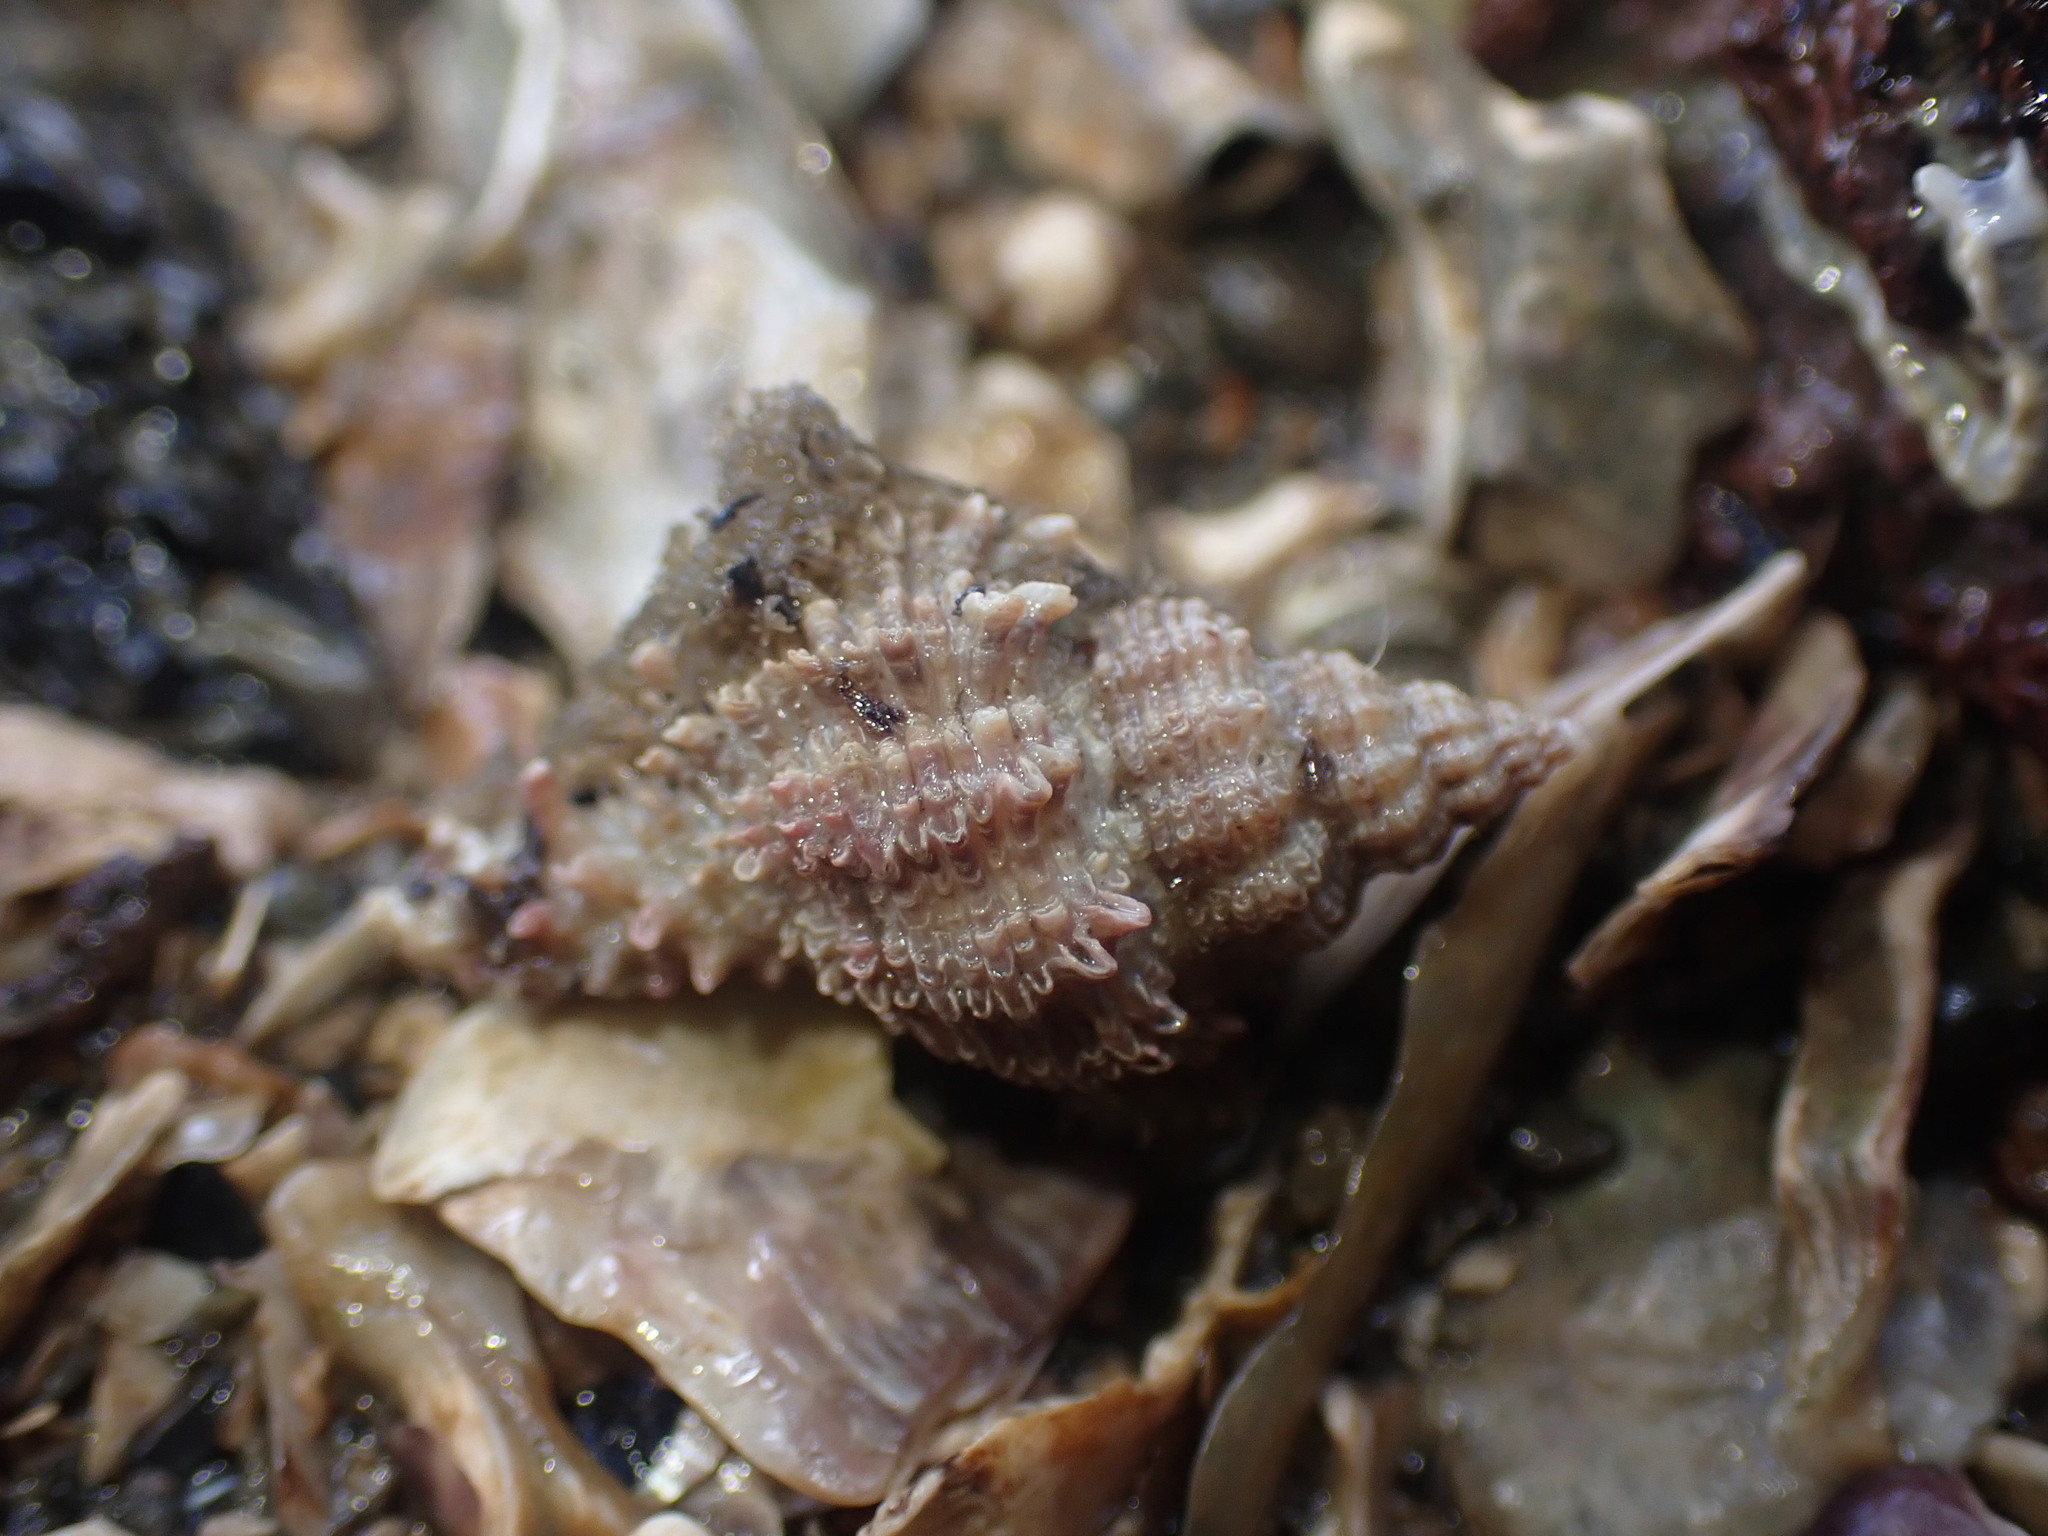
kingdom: Animalia
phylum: Mollusca
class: Gastropoda
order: Neogastropoda
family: Muricidae
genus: Murexsul
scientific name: Murexsul octogonus
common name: Octagon murex
